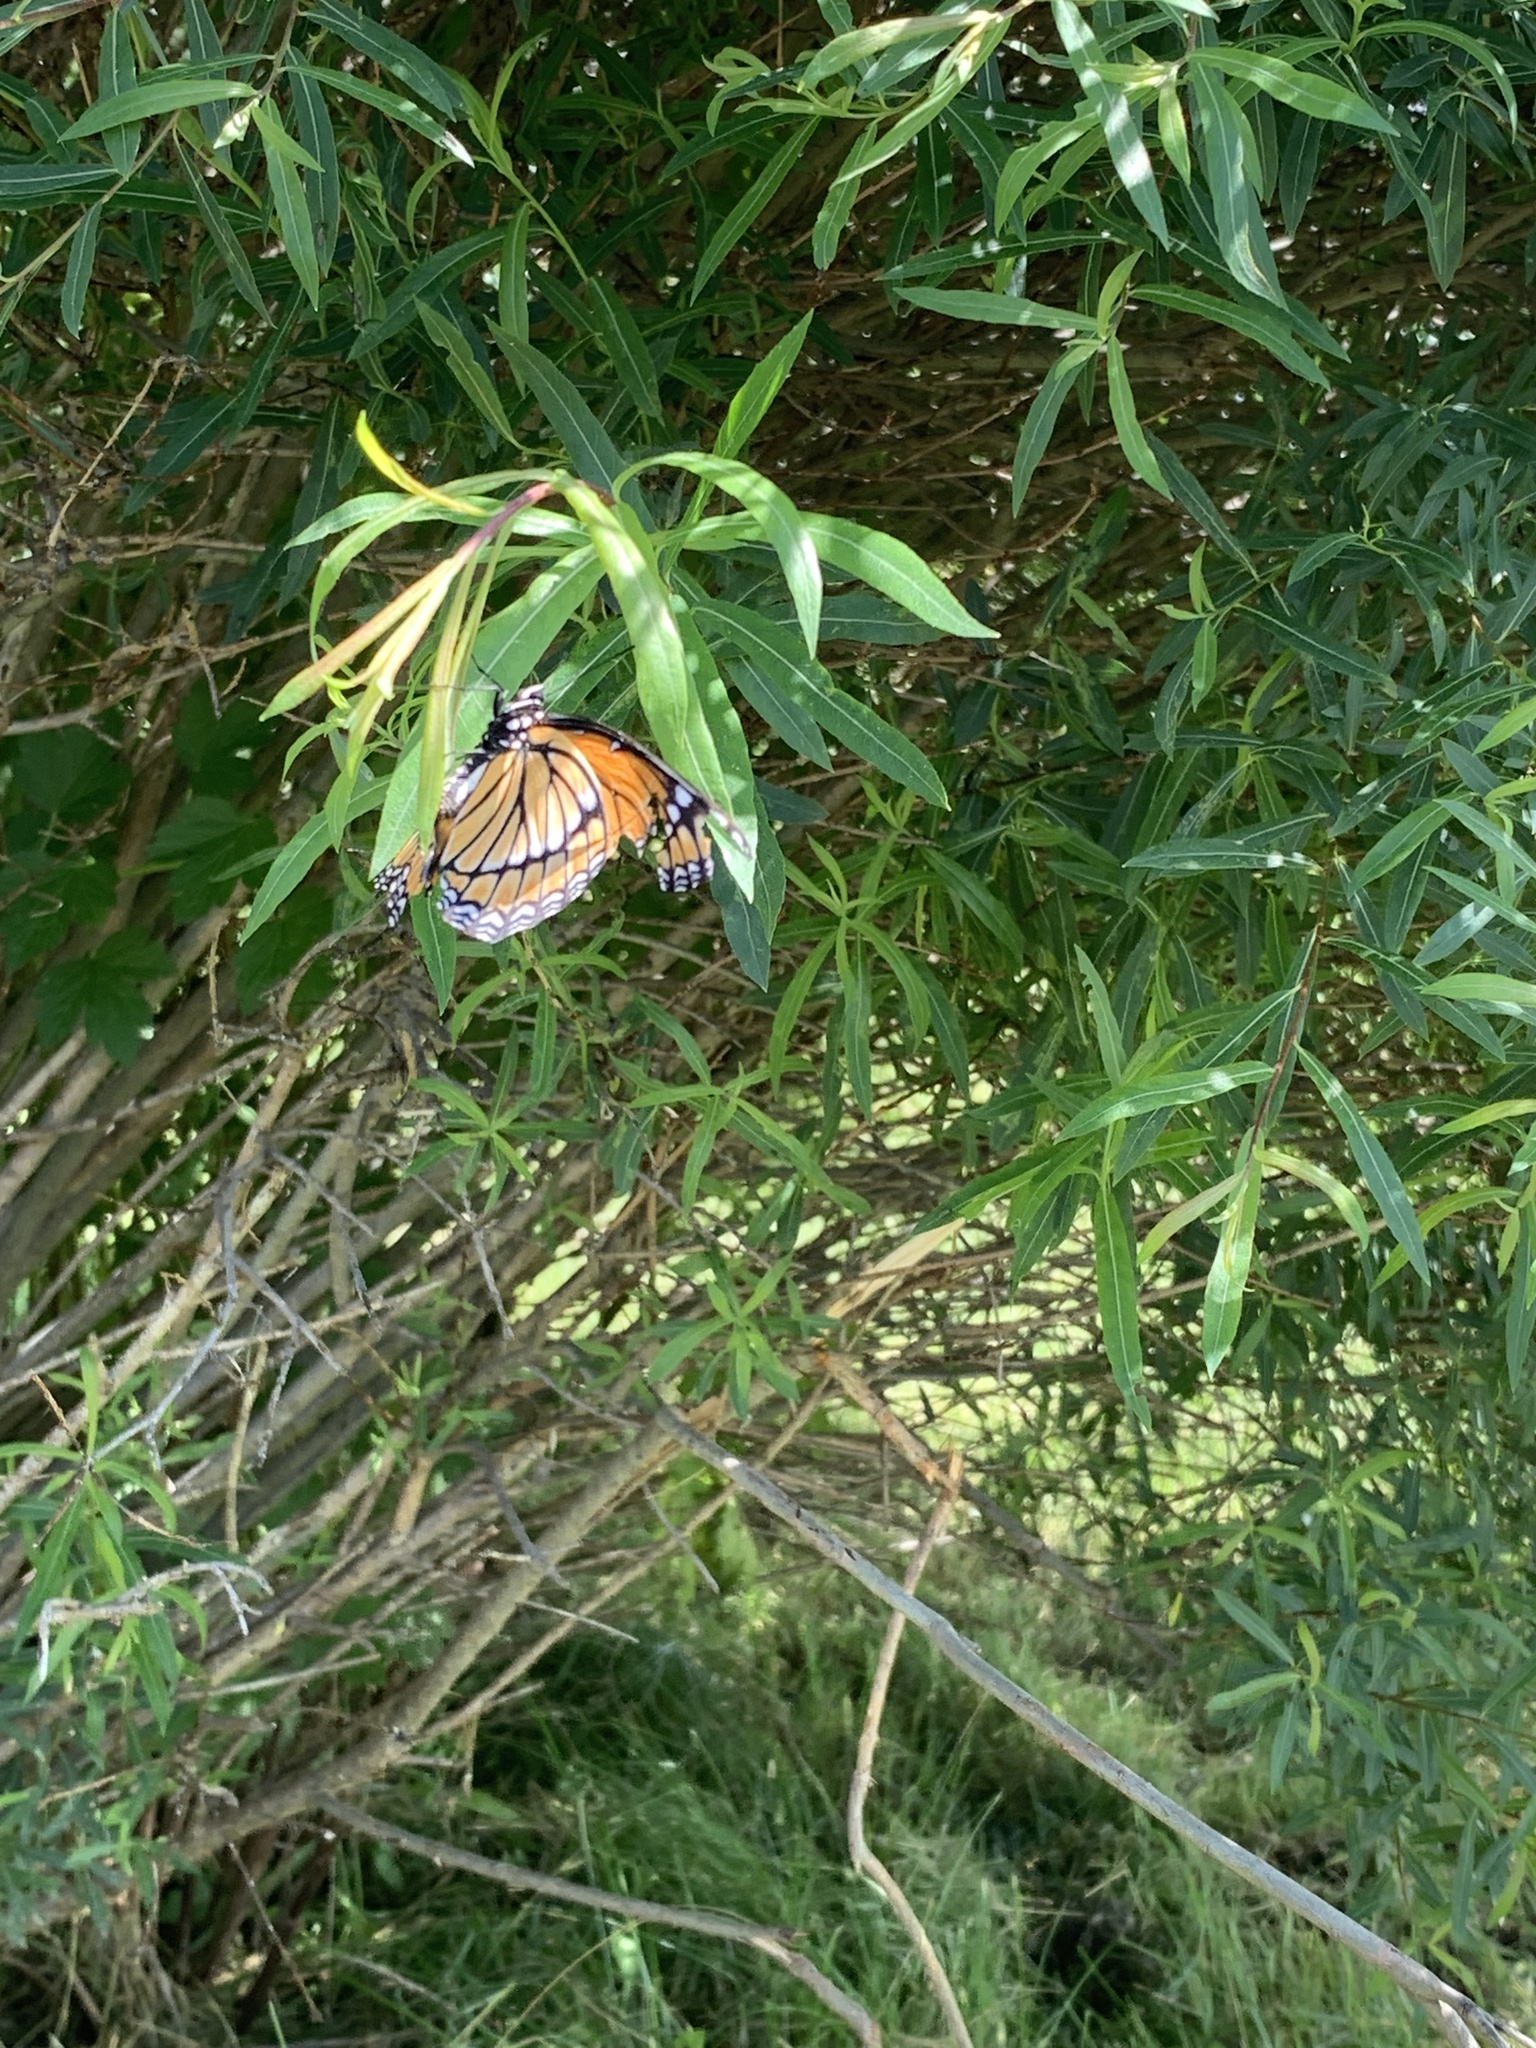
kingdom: Animalia
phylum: Arthropoda
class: Insecta
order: Lepidoptera
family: Nymphalidae
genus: Limenitis
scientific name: Limenitis archippus
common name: Viceroy
